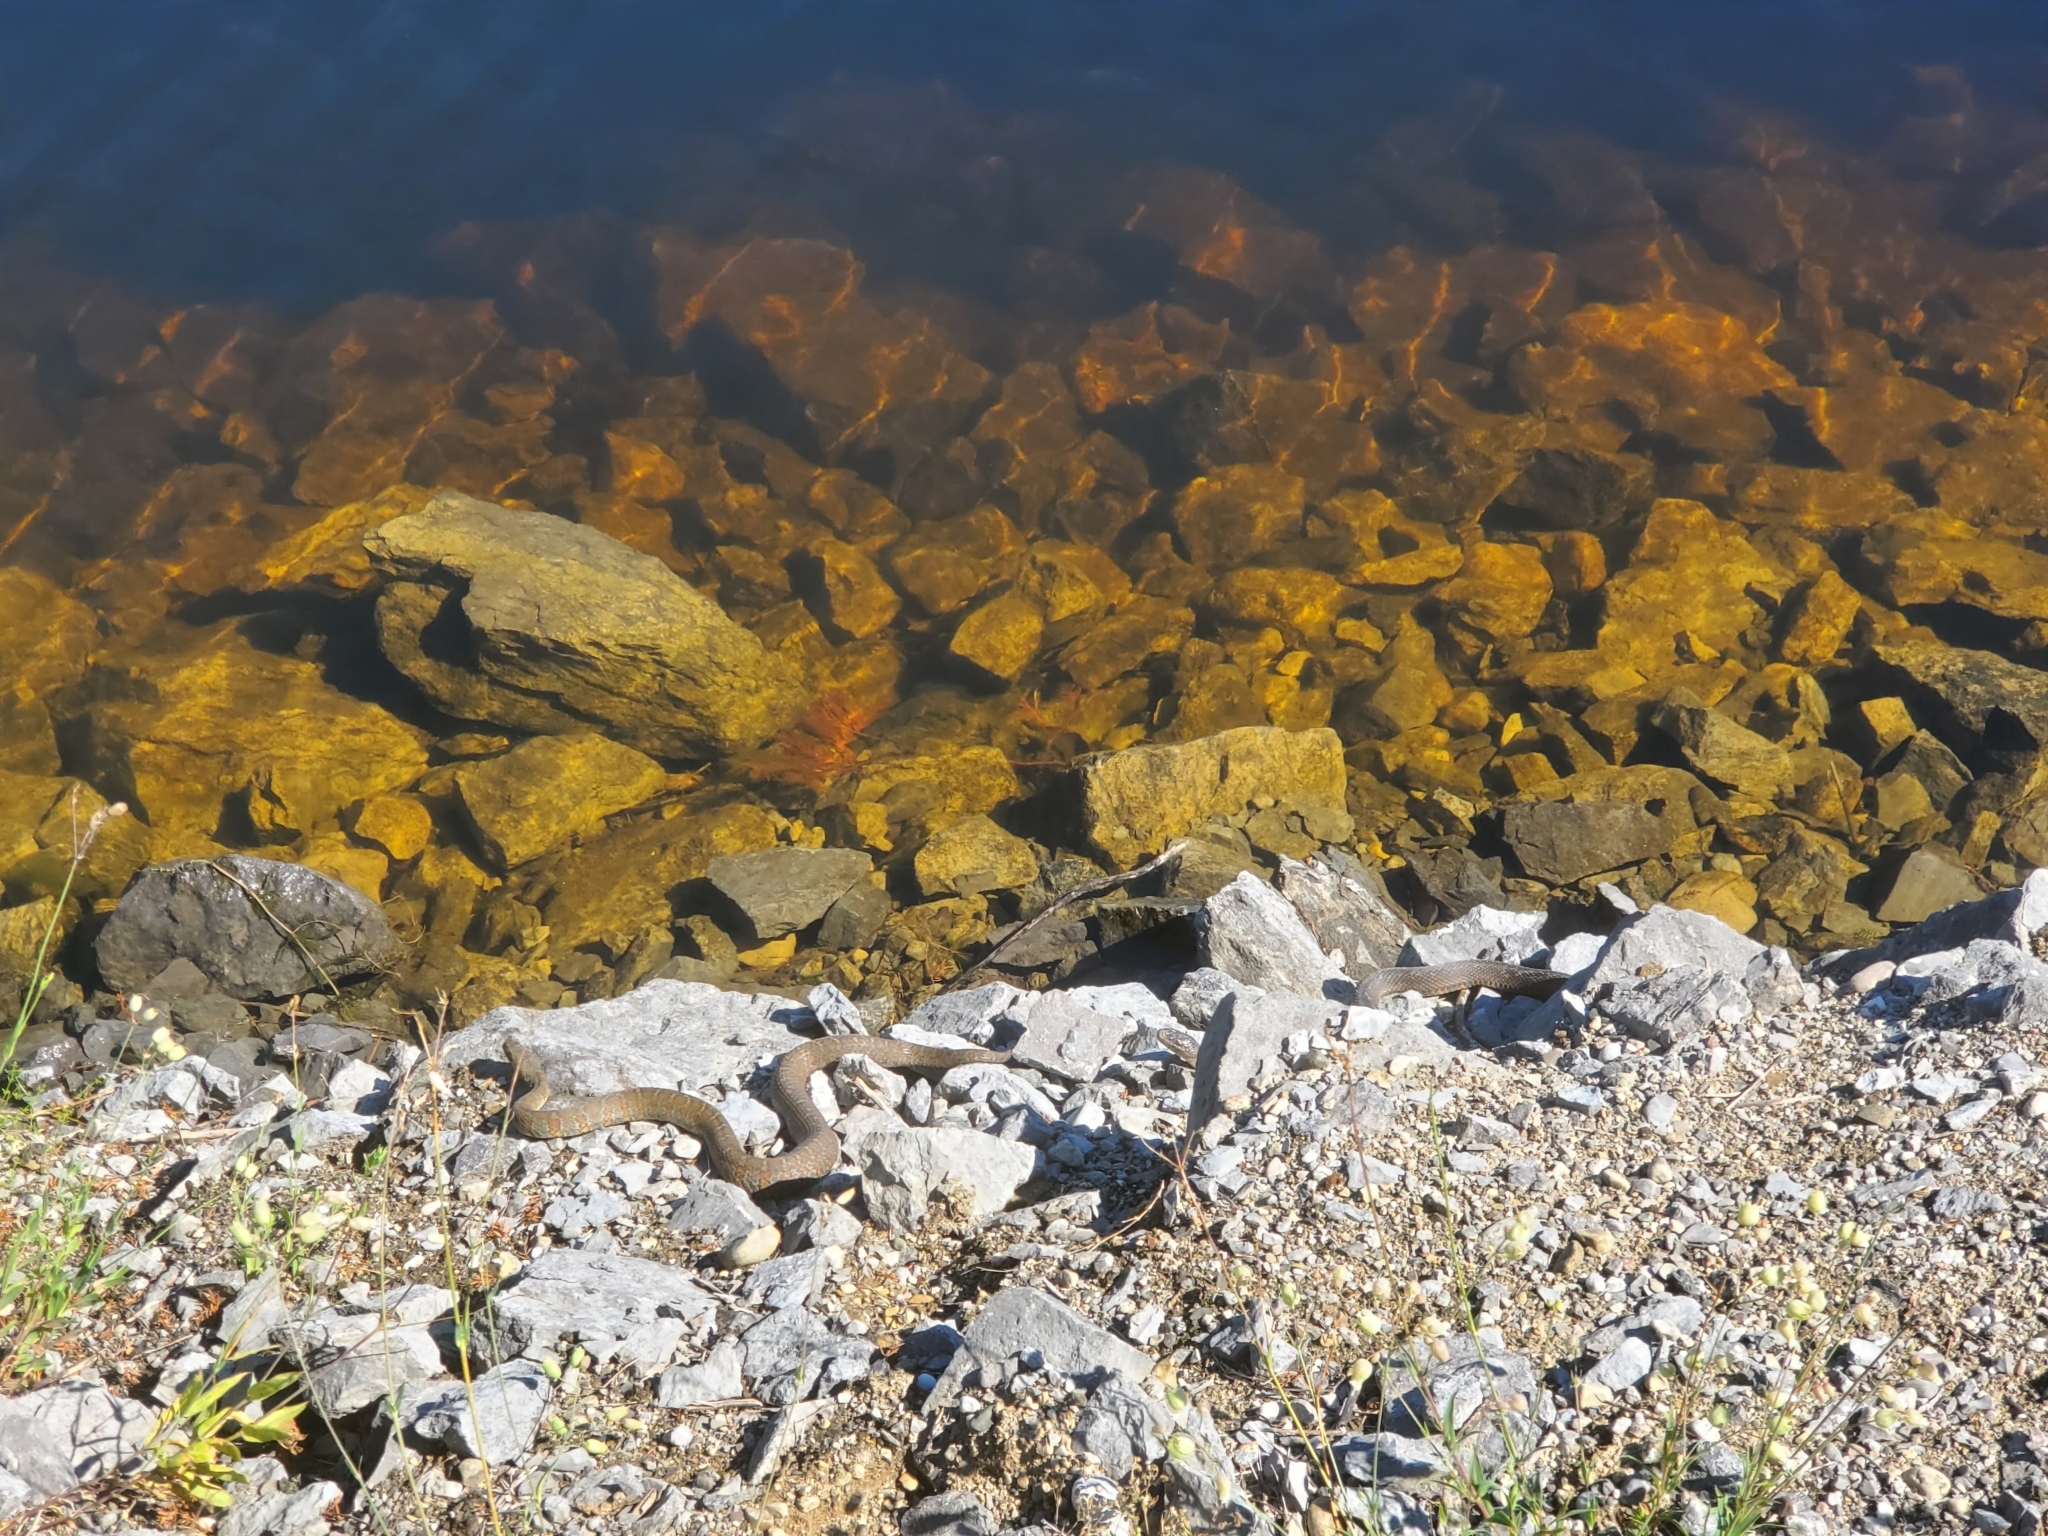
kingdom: Animalia
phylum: Chordata
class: Squamata
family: Colubridae
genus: Nerodia
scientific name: Nerodia sipedon
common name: Northern water snake
